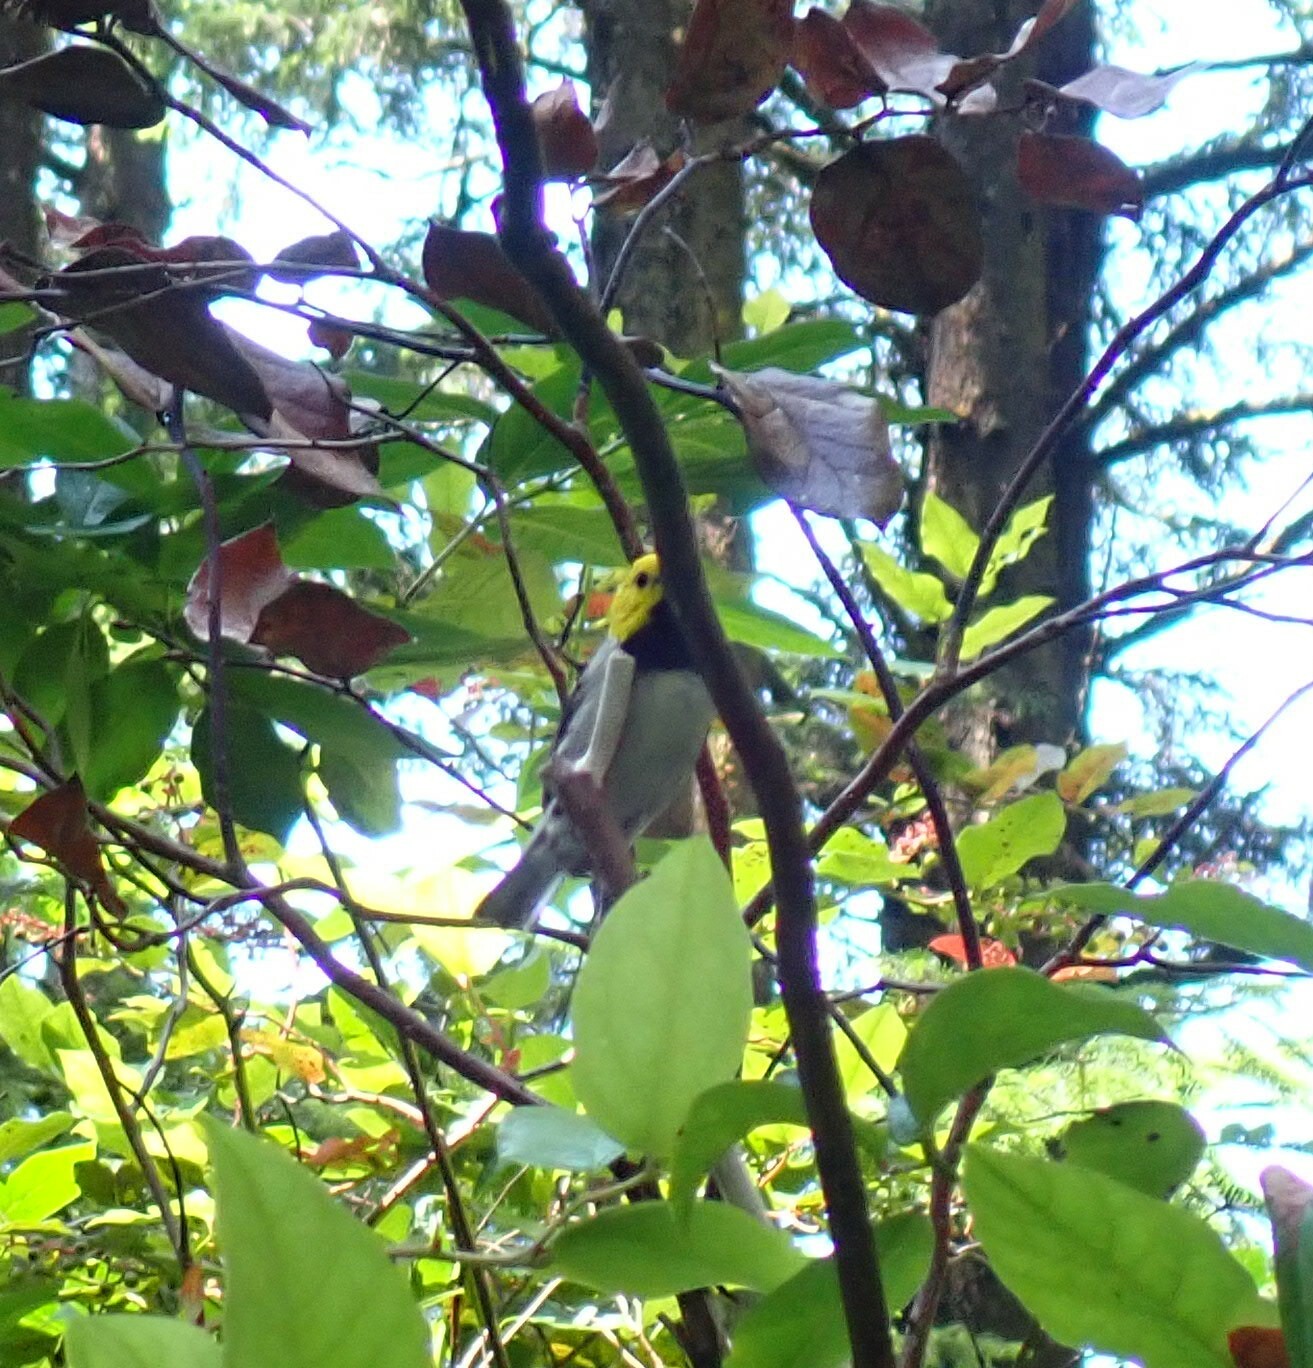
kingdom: Animalia
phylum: Chordata
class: Aves
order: Passeriformes
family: Parulidae
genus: Setophaga
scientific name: Setophaga occidentalis
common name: Hermit warbler
